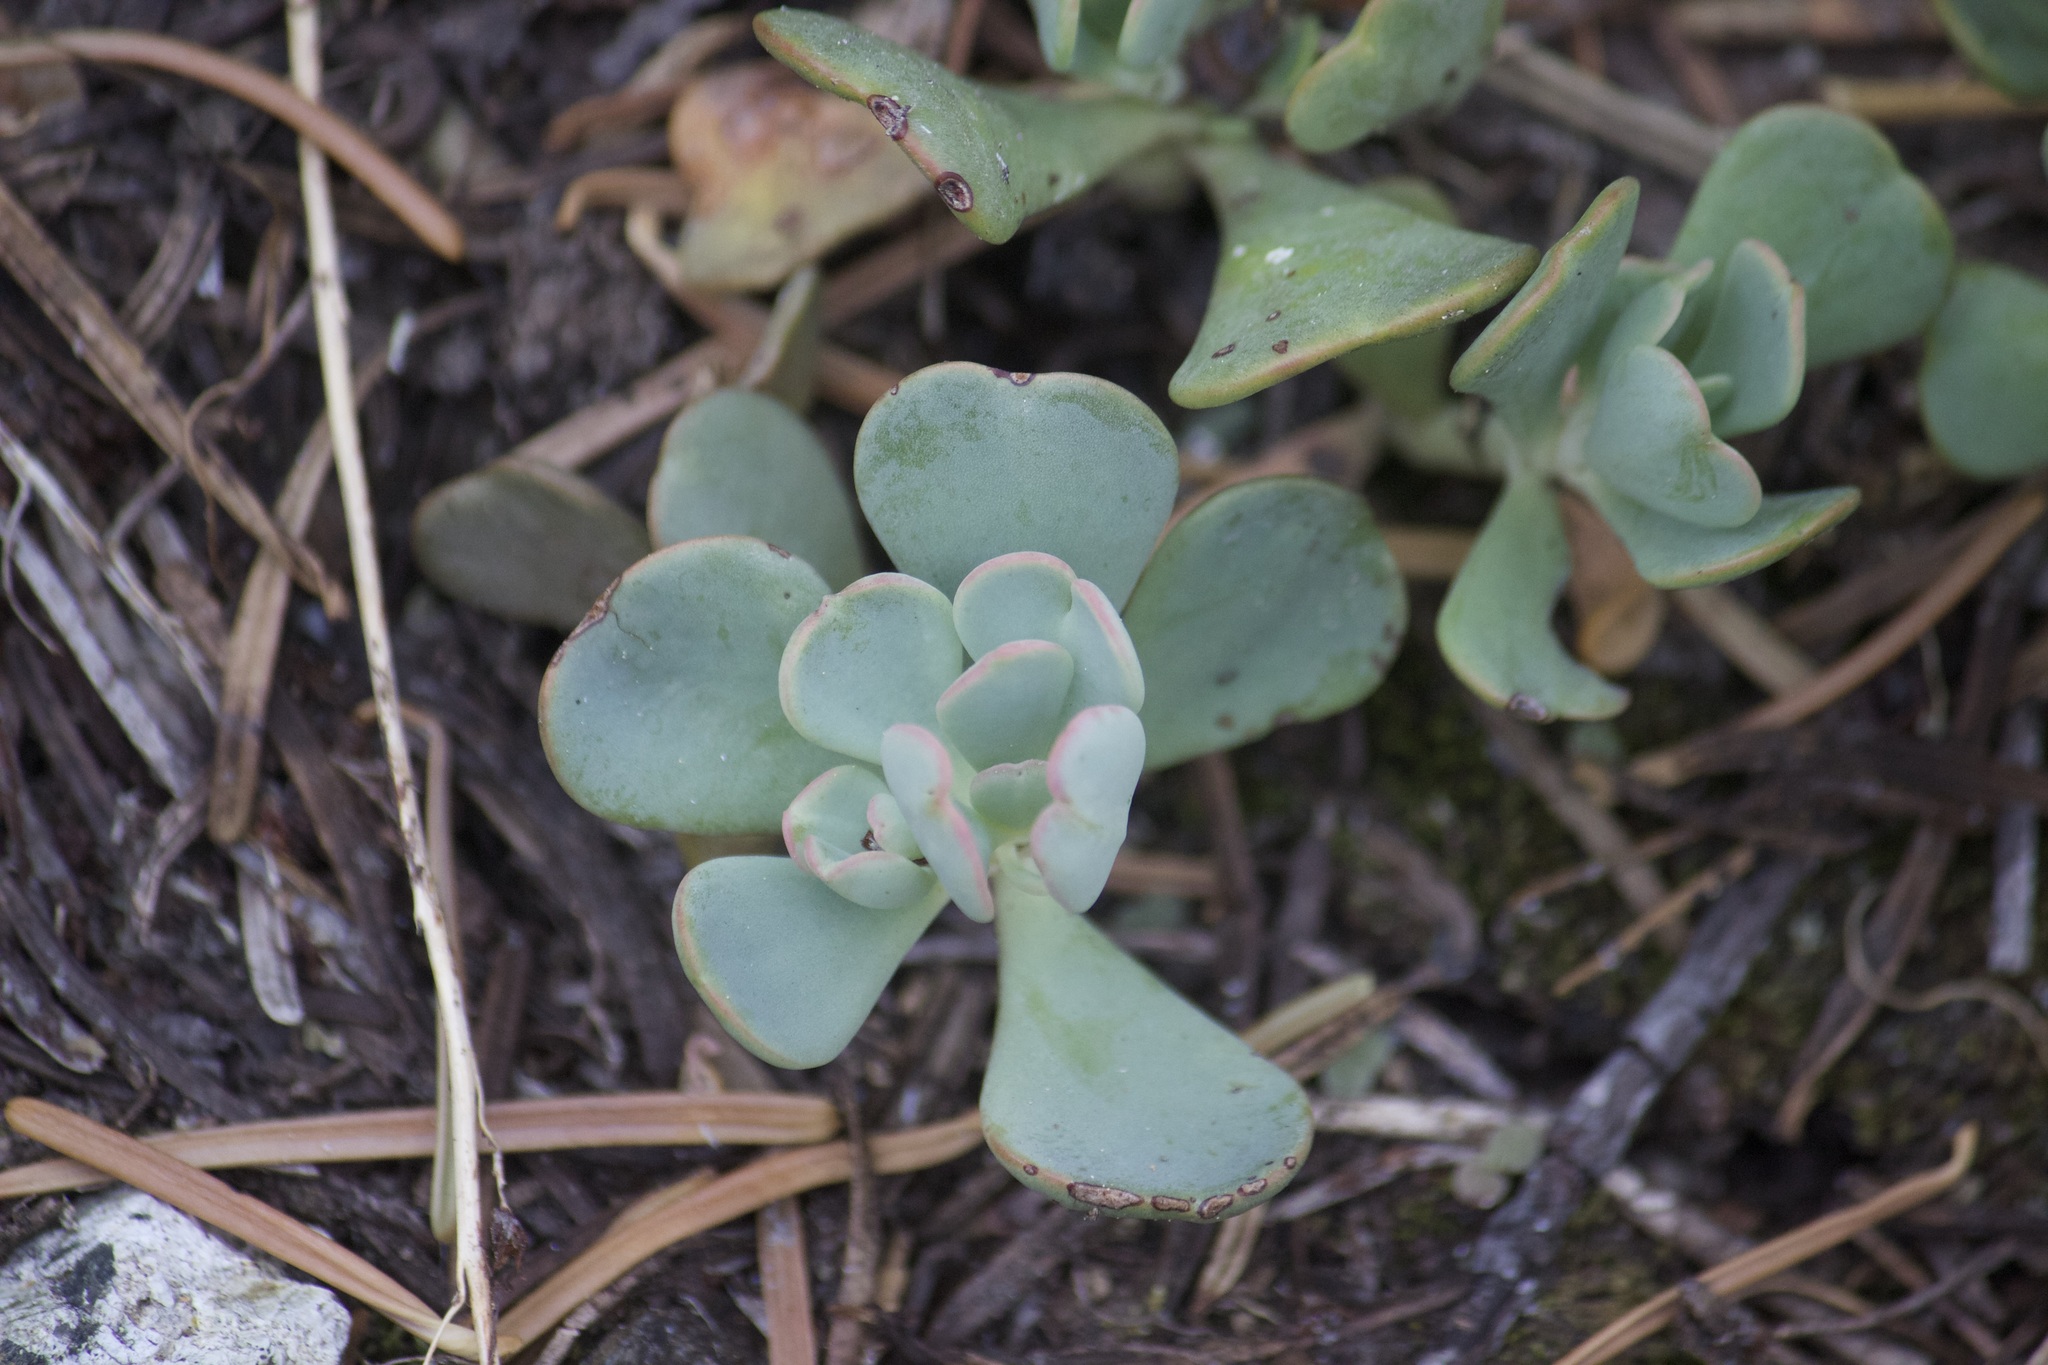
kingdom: Plantae
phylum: Tracheophyta
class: Magnoliopsida
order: Saxifragales
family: Crassulaceae
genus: Sedum
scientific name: Sedum obtusatum
